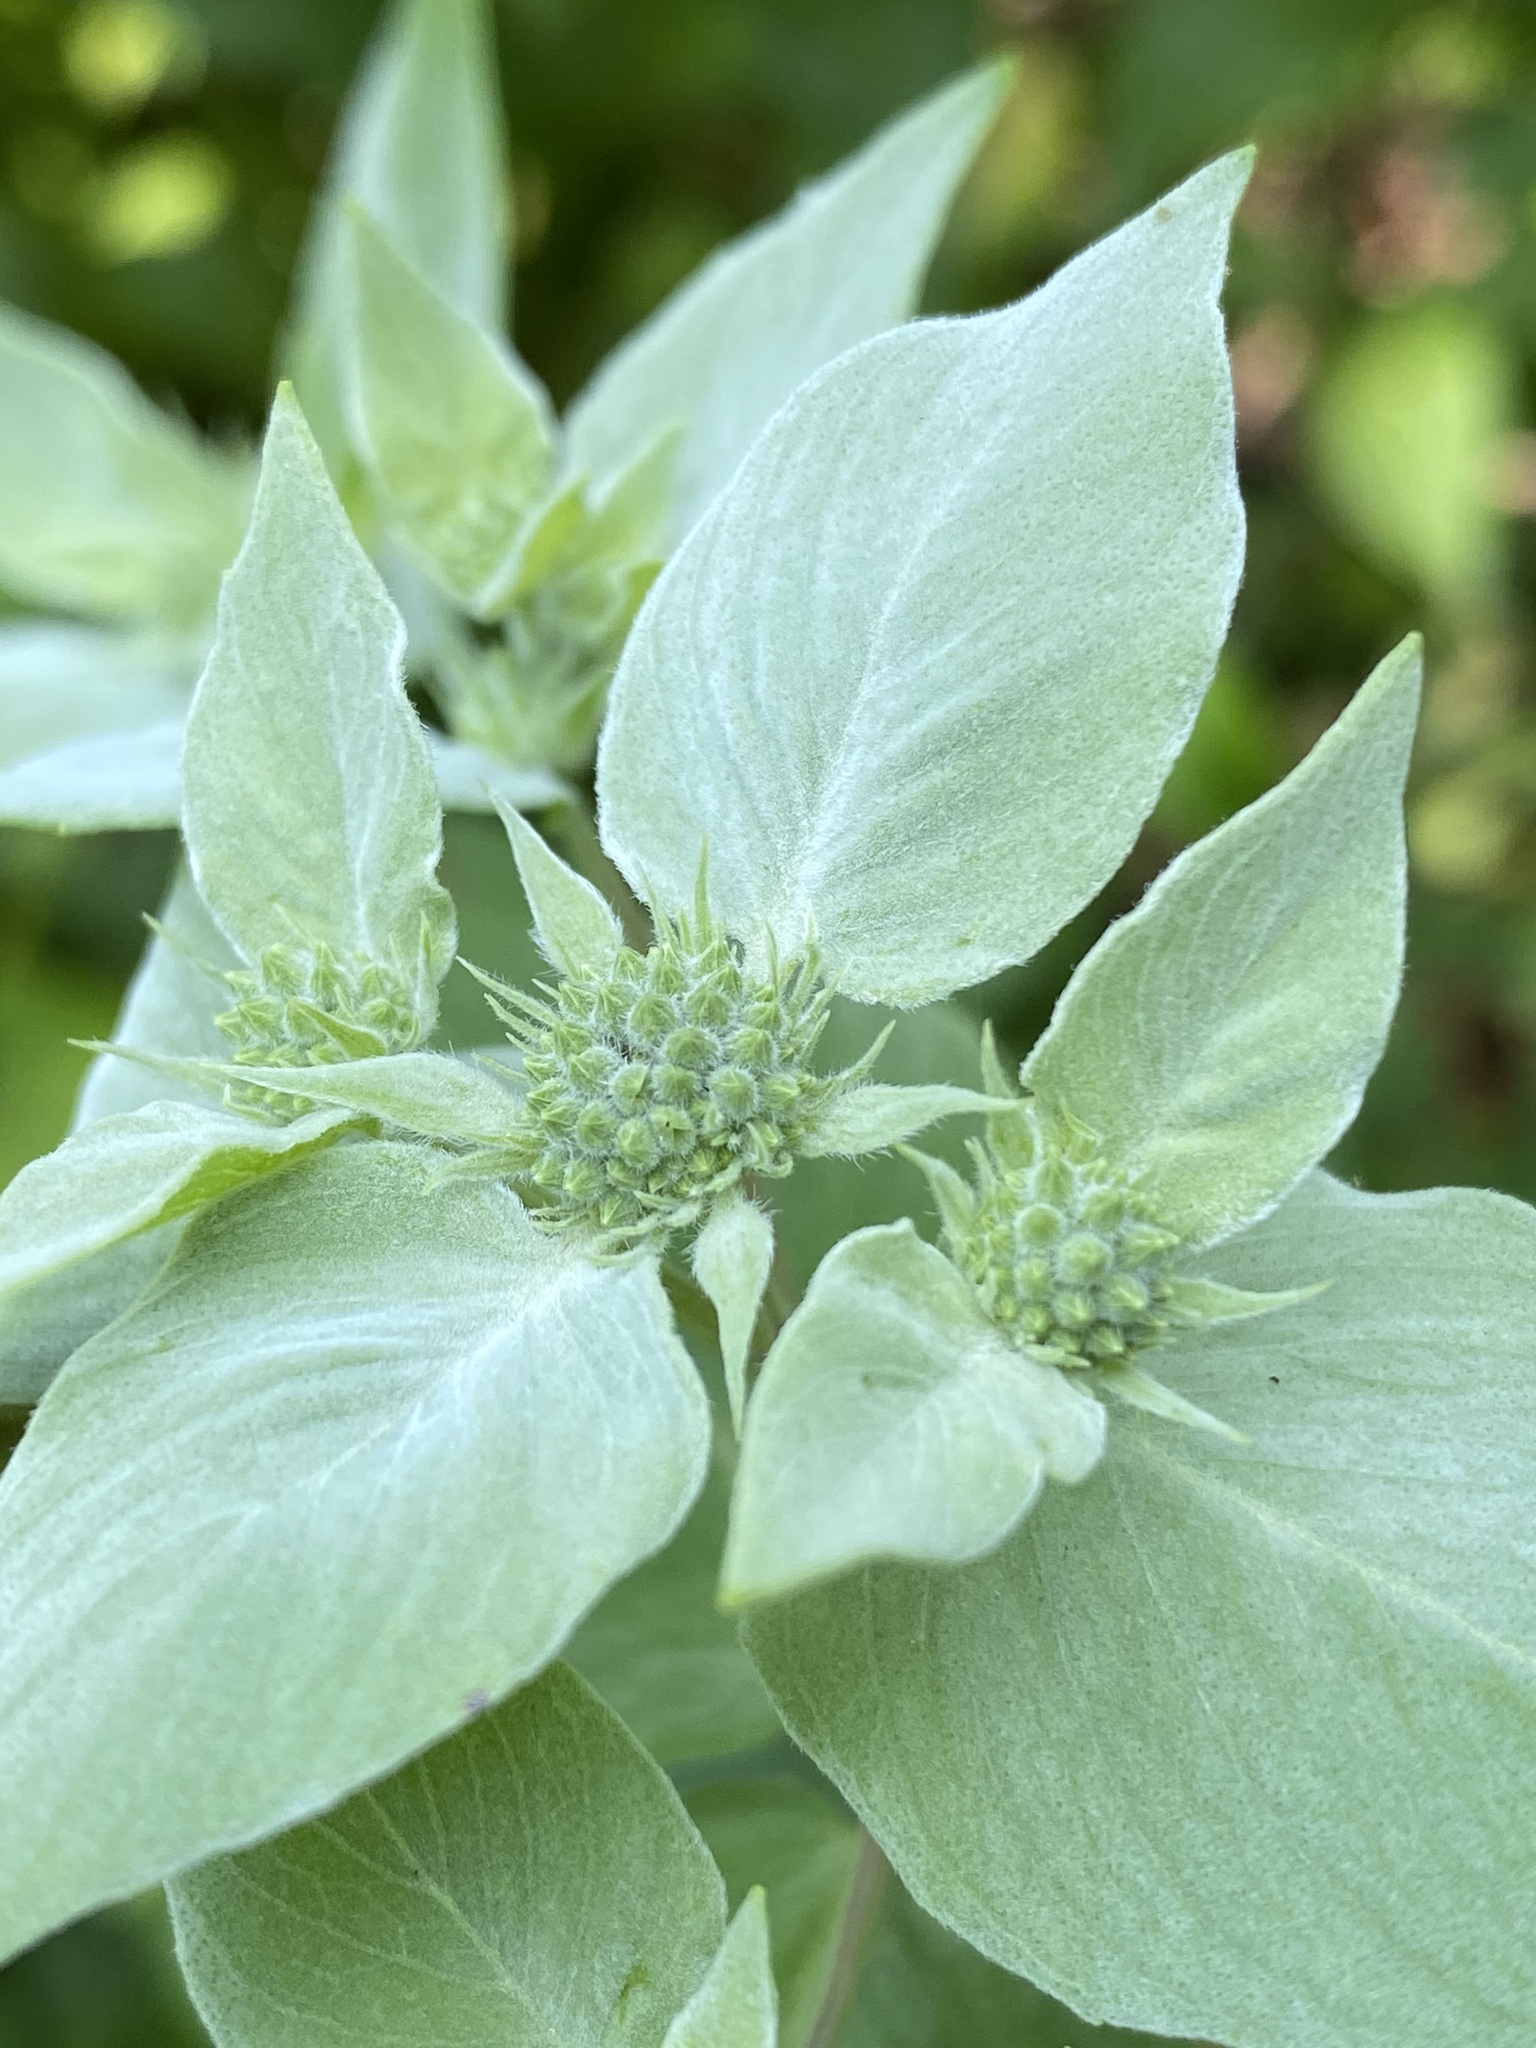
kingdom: Plantae
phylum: Tracheophyta
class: Magnoliopsida
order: Lamiales
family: Lamiaceae
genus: Pycnanthemum
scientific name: Pycnanthemum muticum
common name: Blunt mountain-mint
